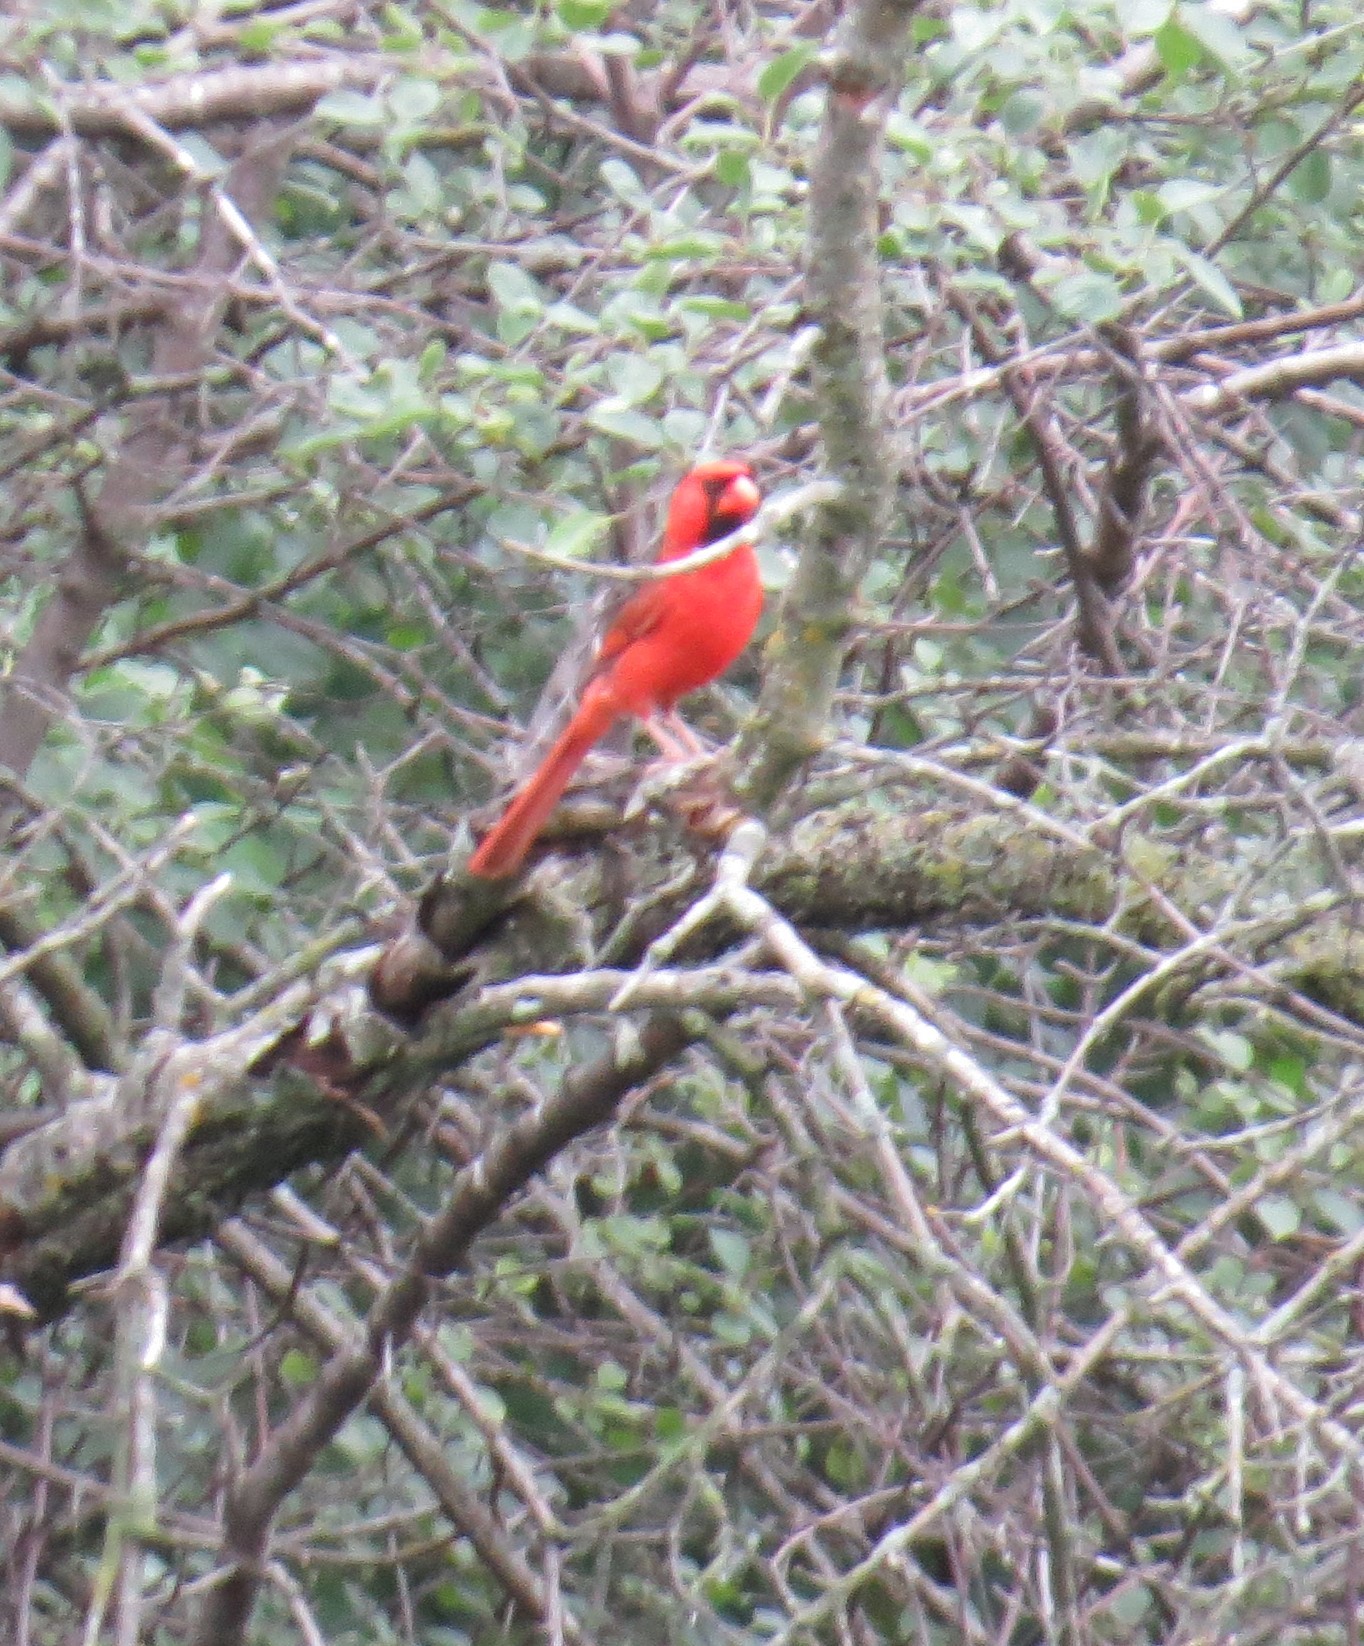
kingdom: Animalia
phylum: Chordata
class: Aves
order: Passeriformes
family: Cardinalidae
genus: Cardinalis
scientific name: Cardinalis cardinalis
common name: Northern cardinal
